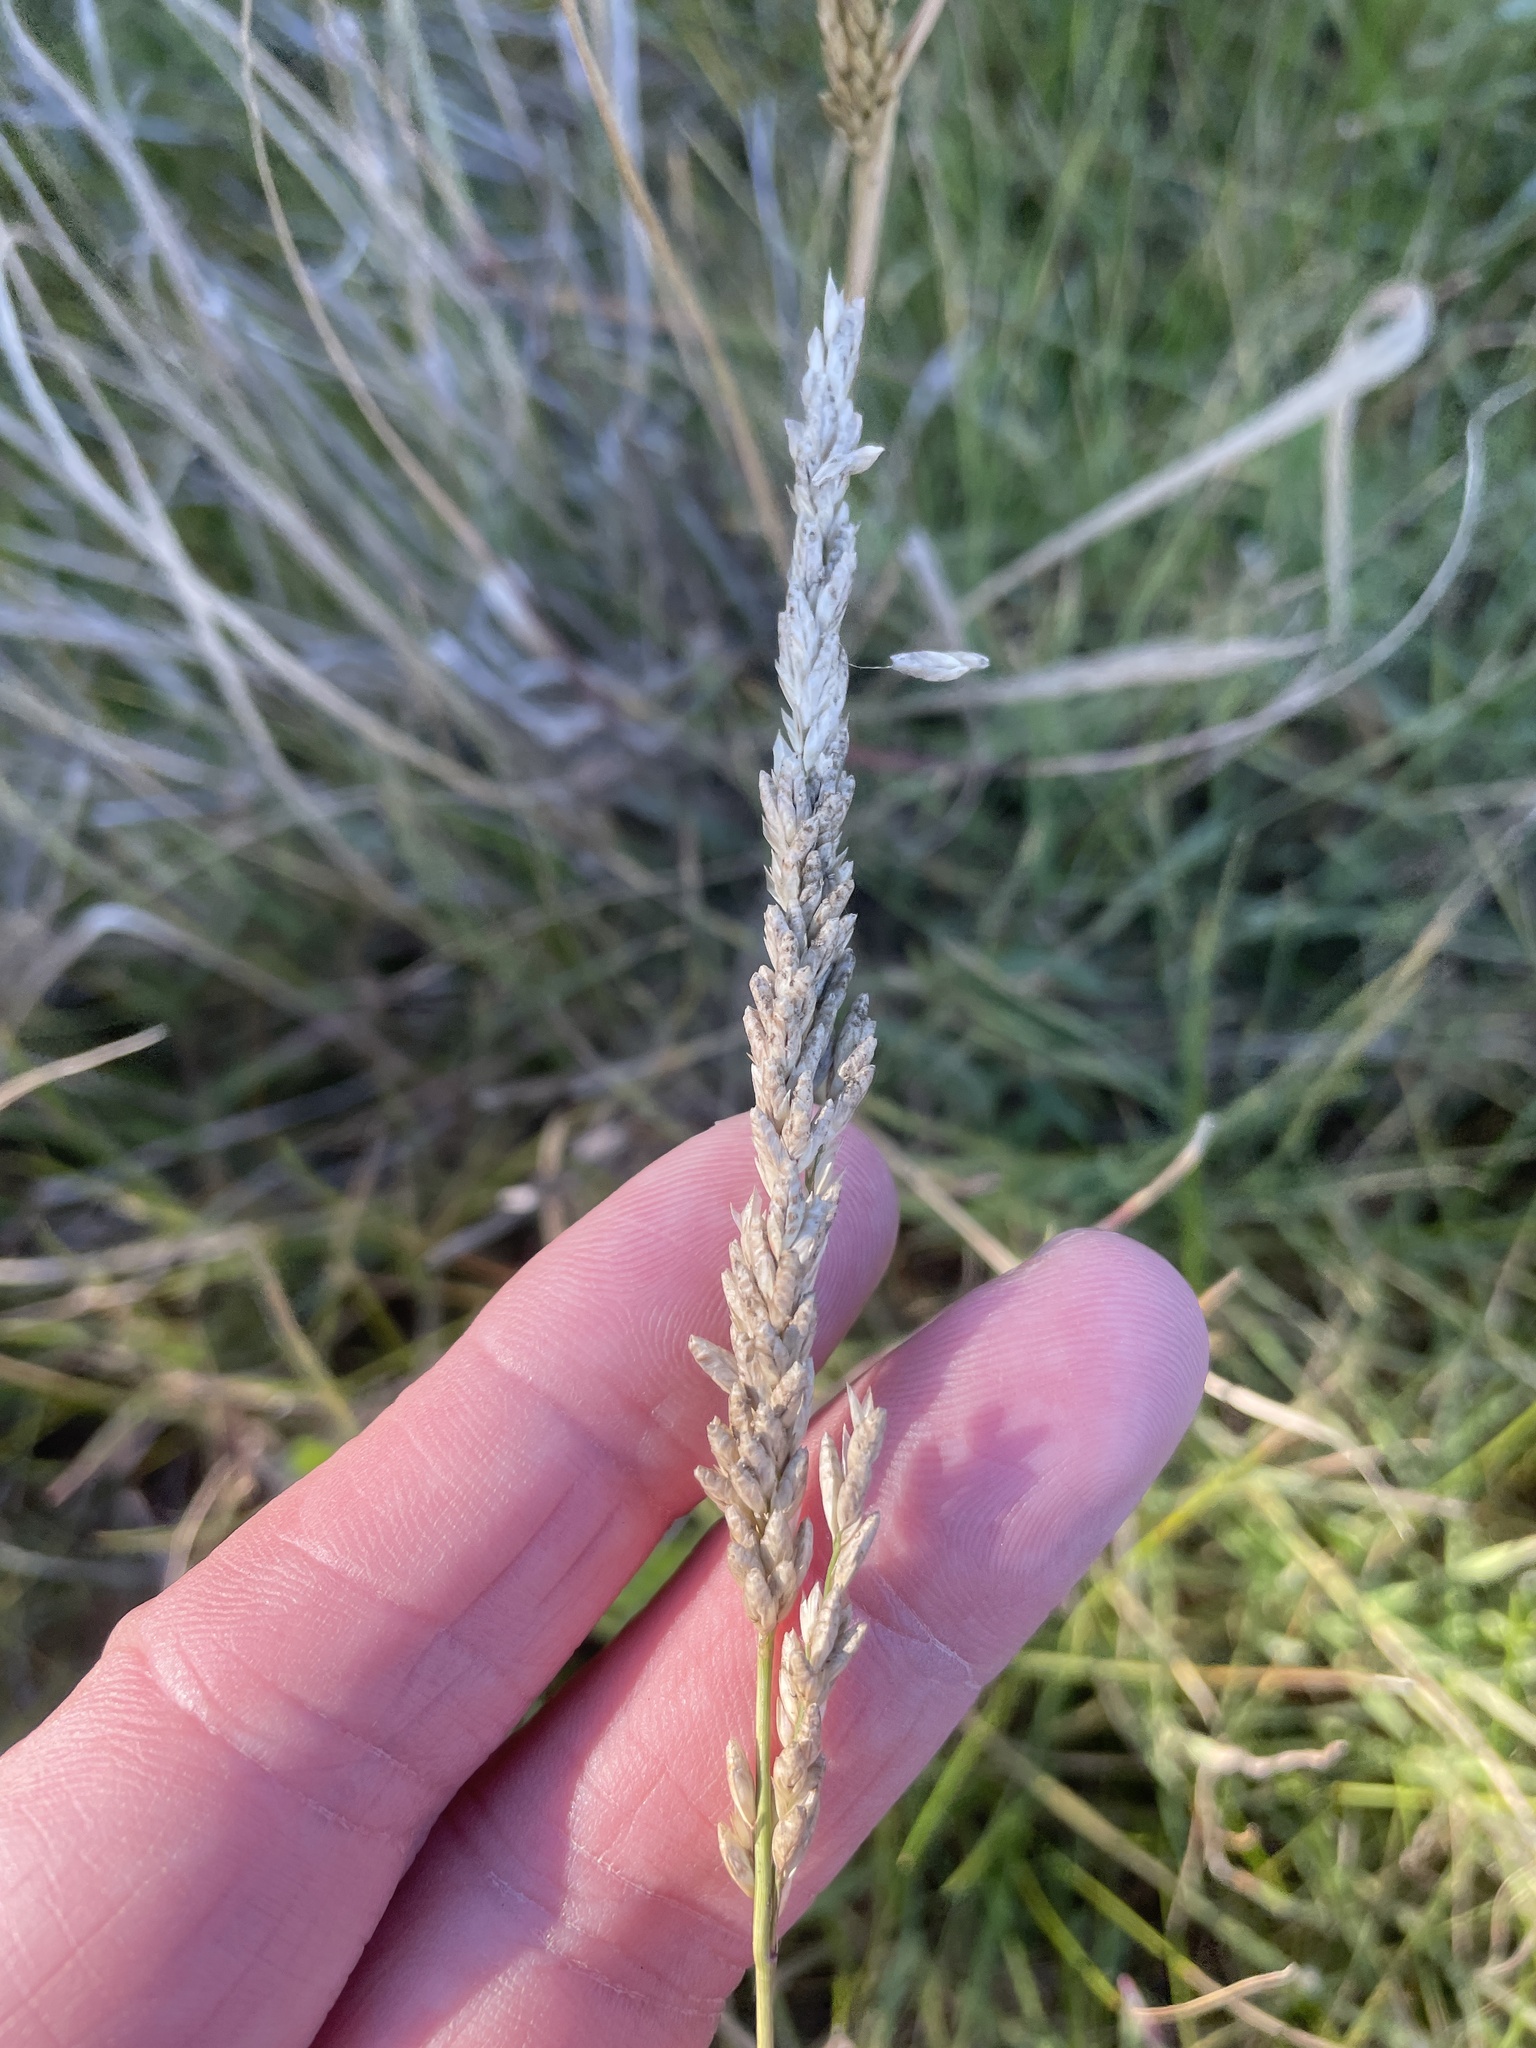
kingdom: Plantae
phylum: Tracheophyta
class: Liliopsida
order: Poales
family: Poaceae
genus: Tridens
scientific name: Tridens albescens
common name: White tridens
